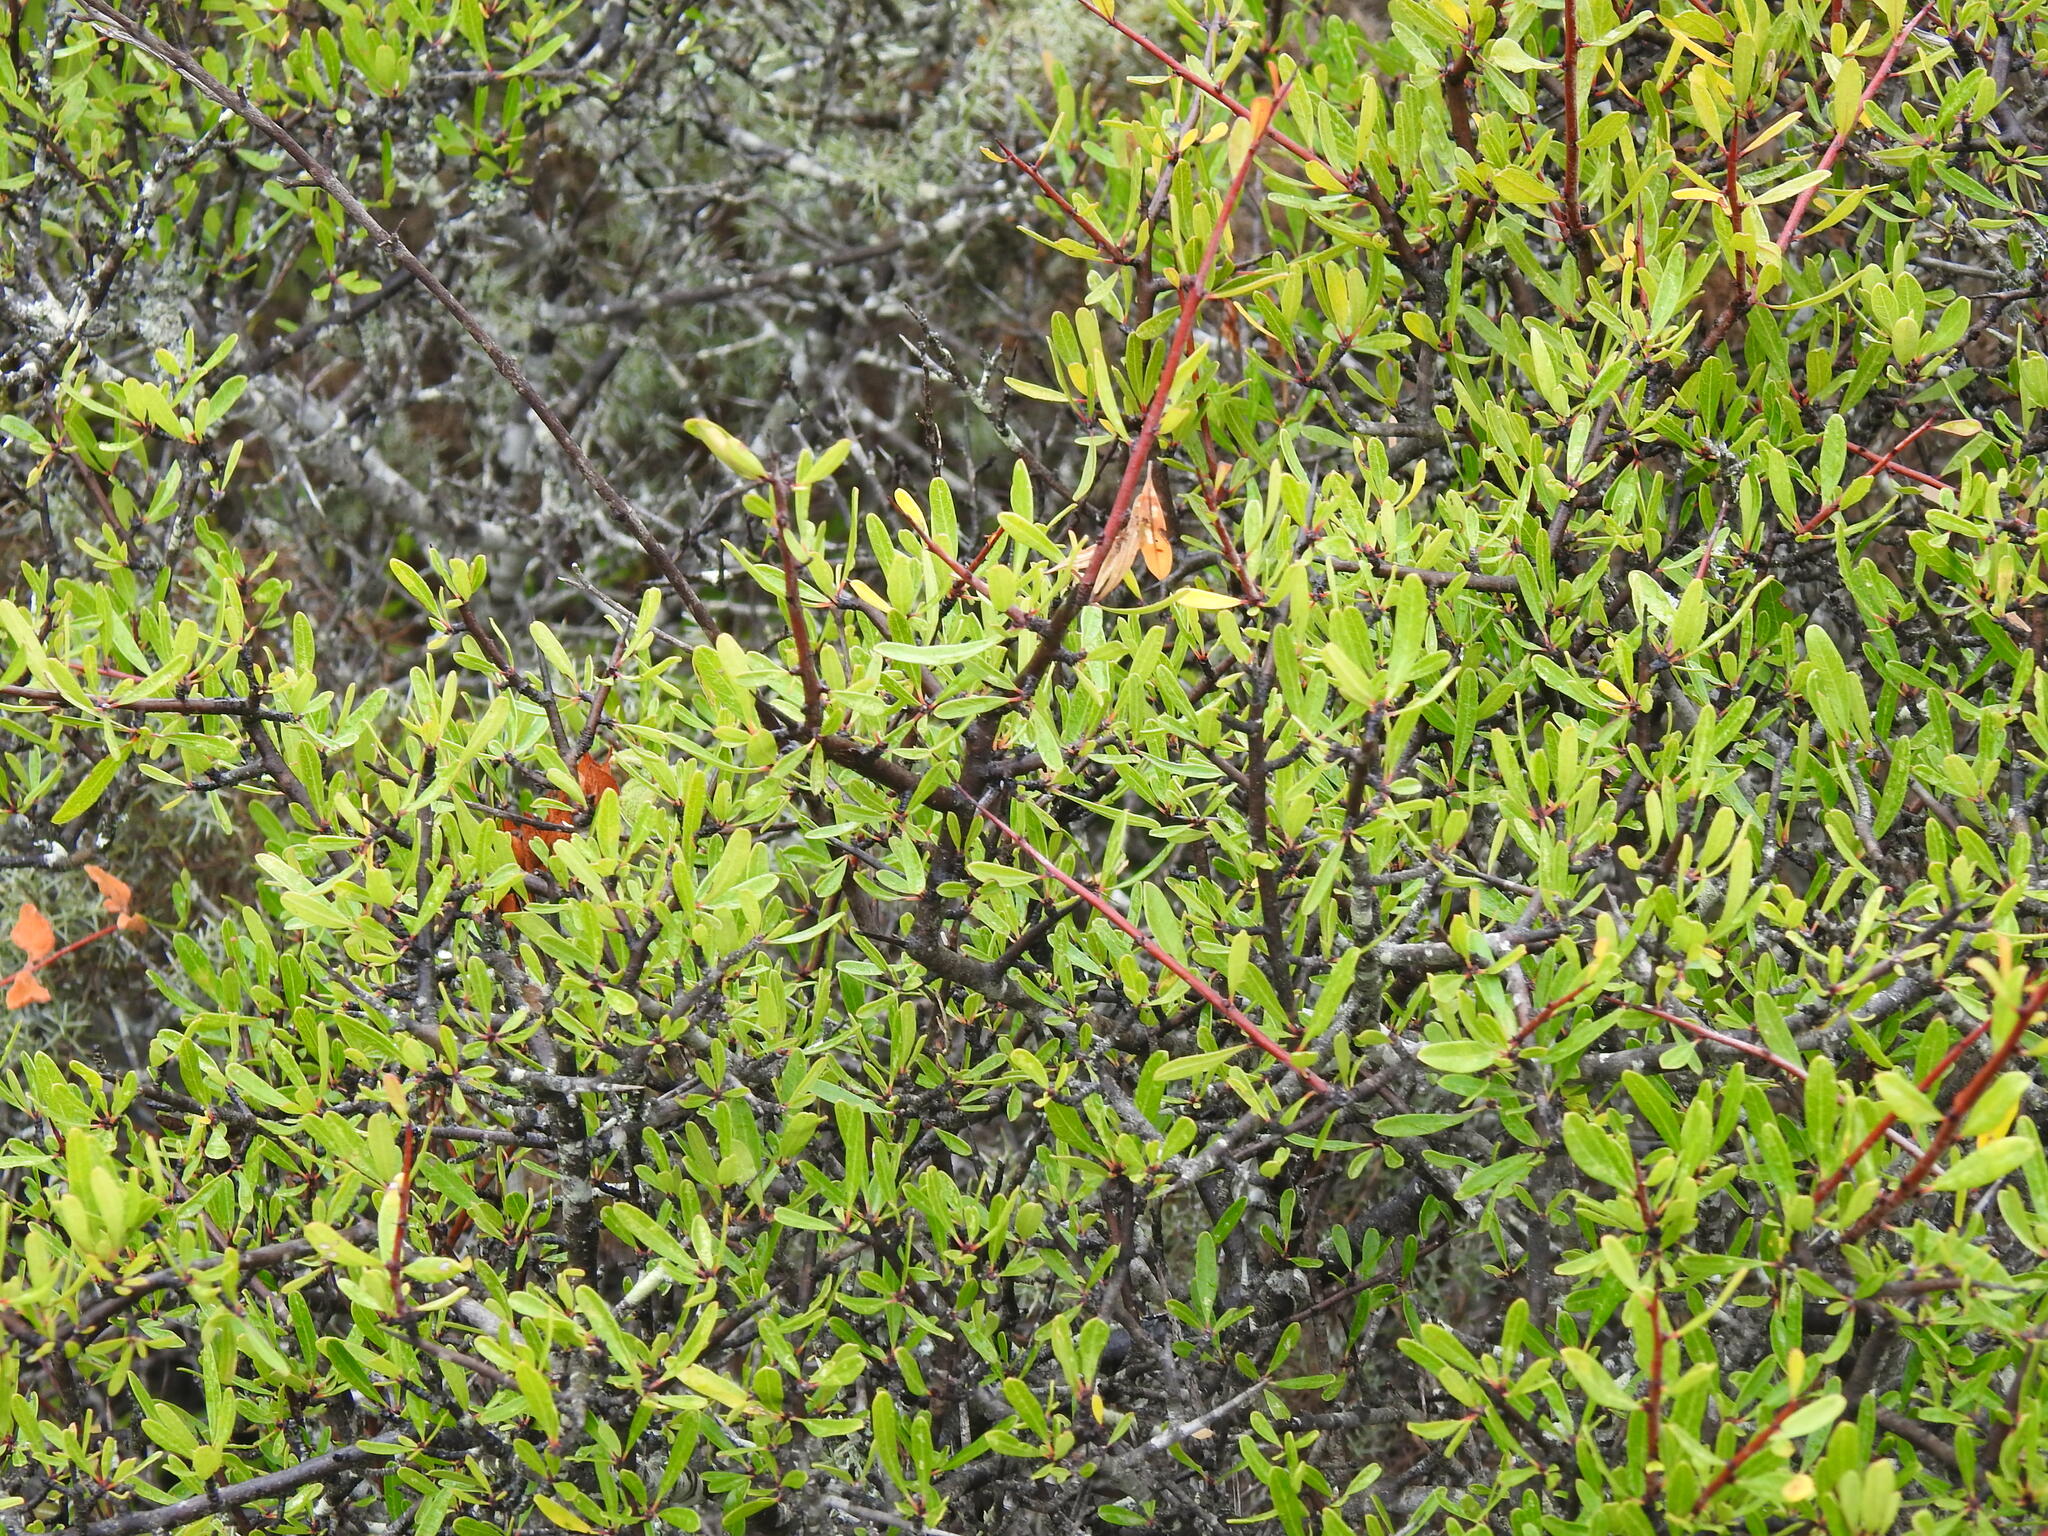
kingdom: Plantae
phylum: Tracheophyta
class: Magnoliopsida
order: Rosales
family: Rhamnaceae
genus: Rhamnus
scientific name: Rhamnus oleoides
